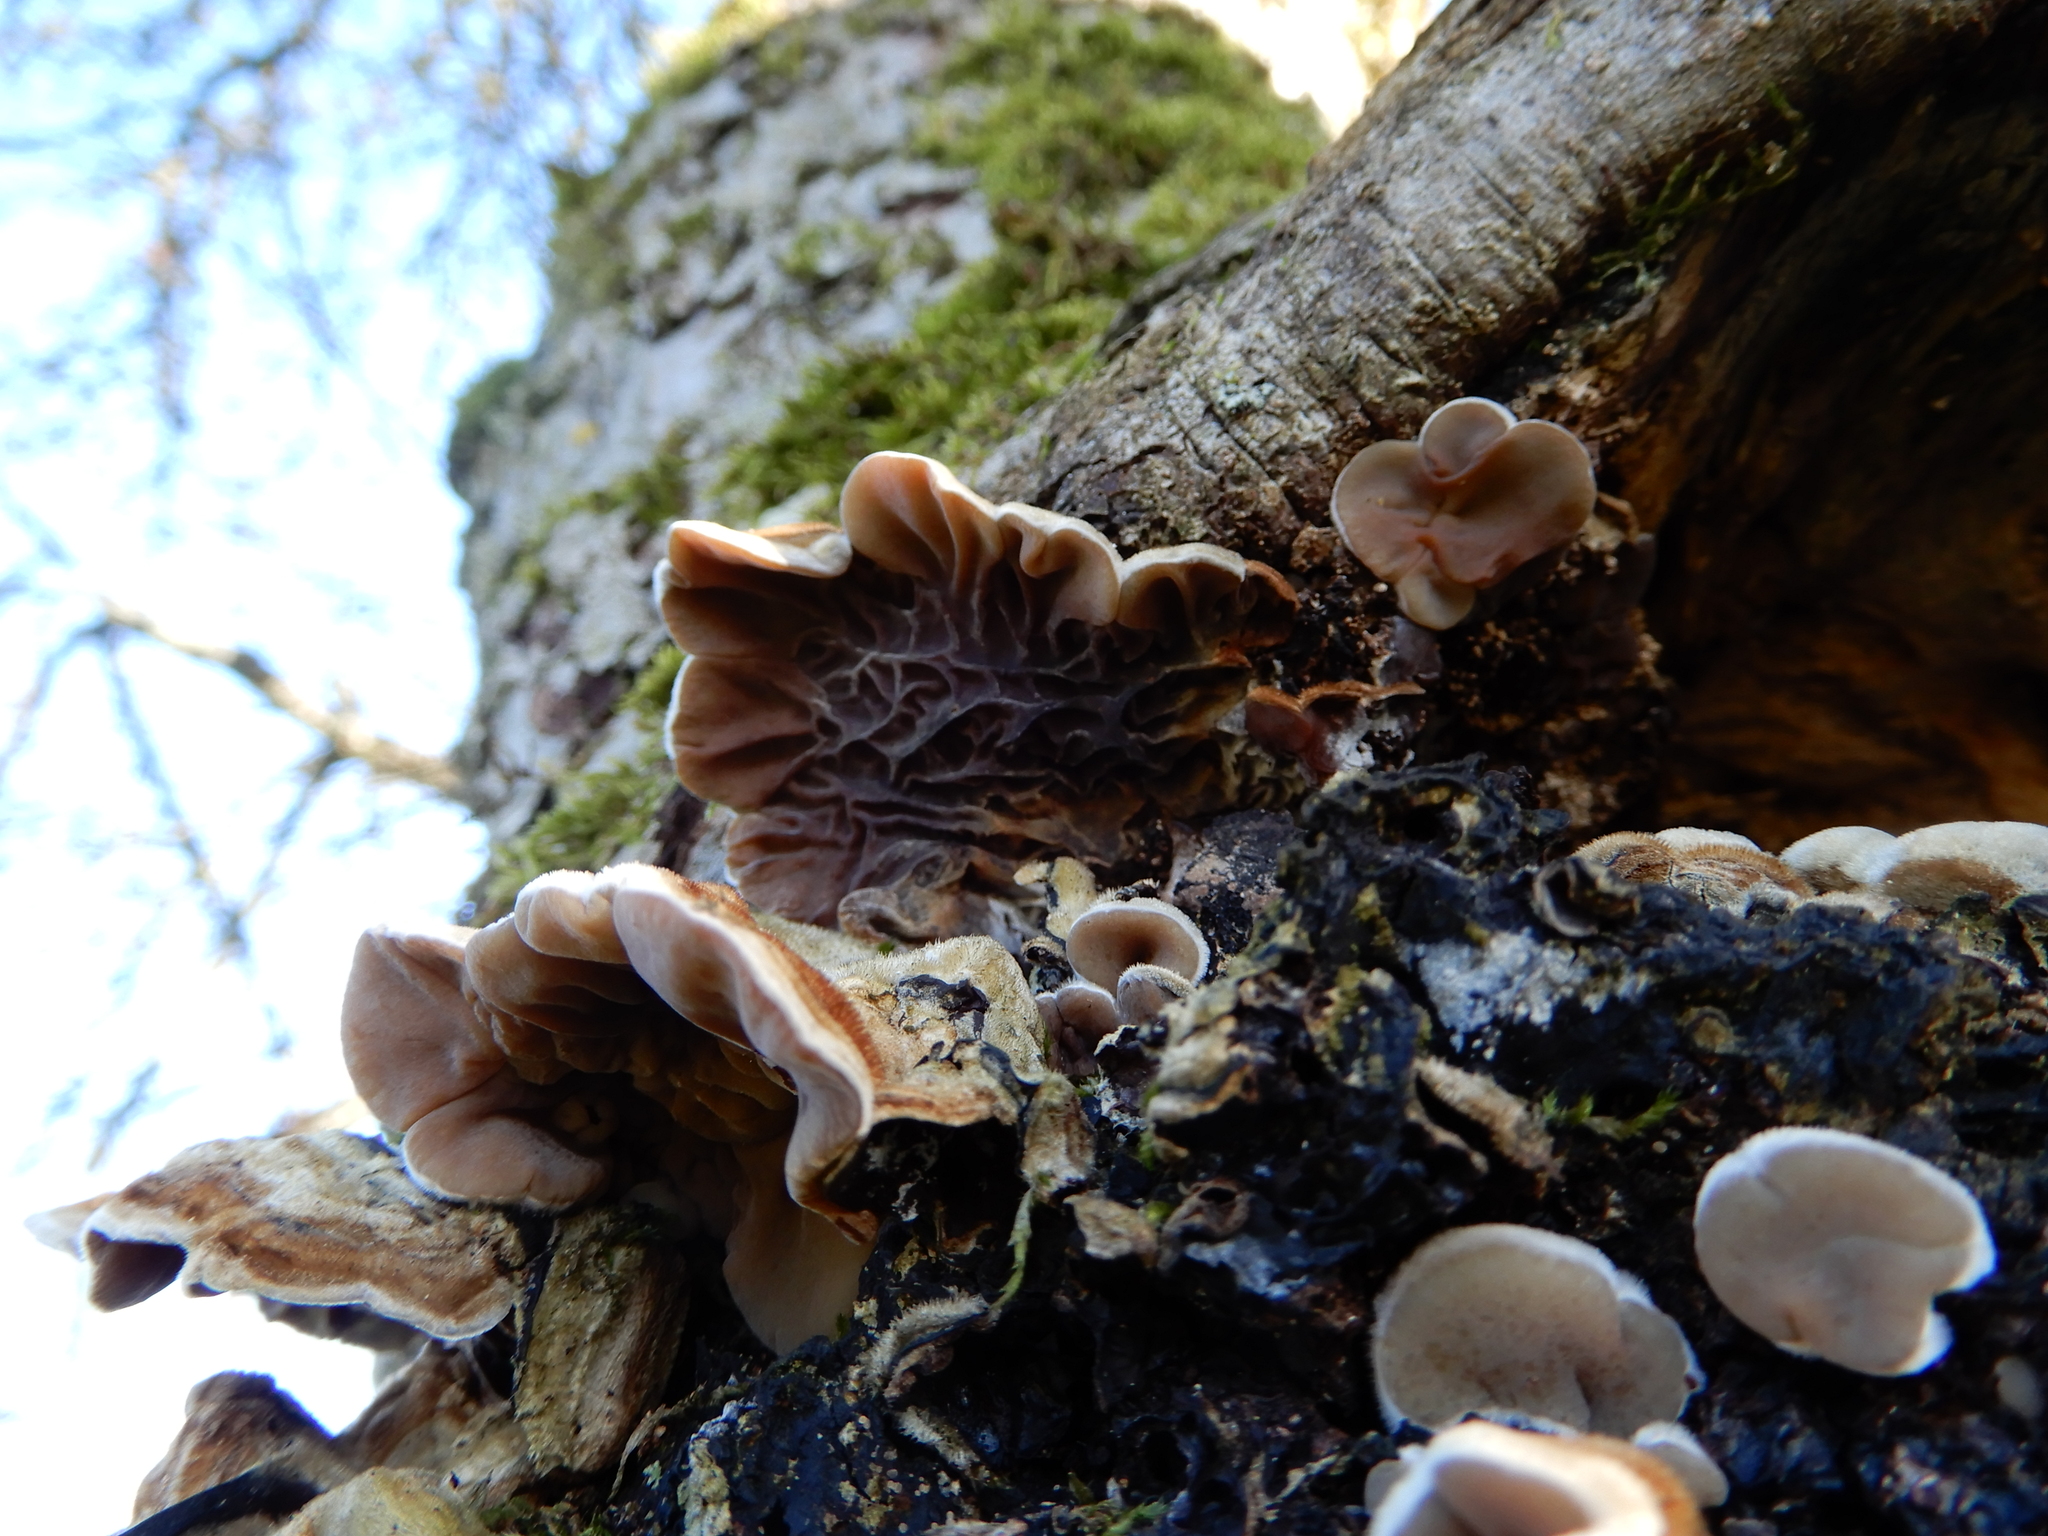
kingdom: Fungi
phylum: Basidiomycota
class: Agaricomycetes
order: Auriculariales
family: Auriculariaceae
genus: Auricularia
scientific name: Auricularia mesenterica
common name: Tripe fungus
